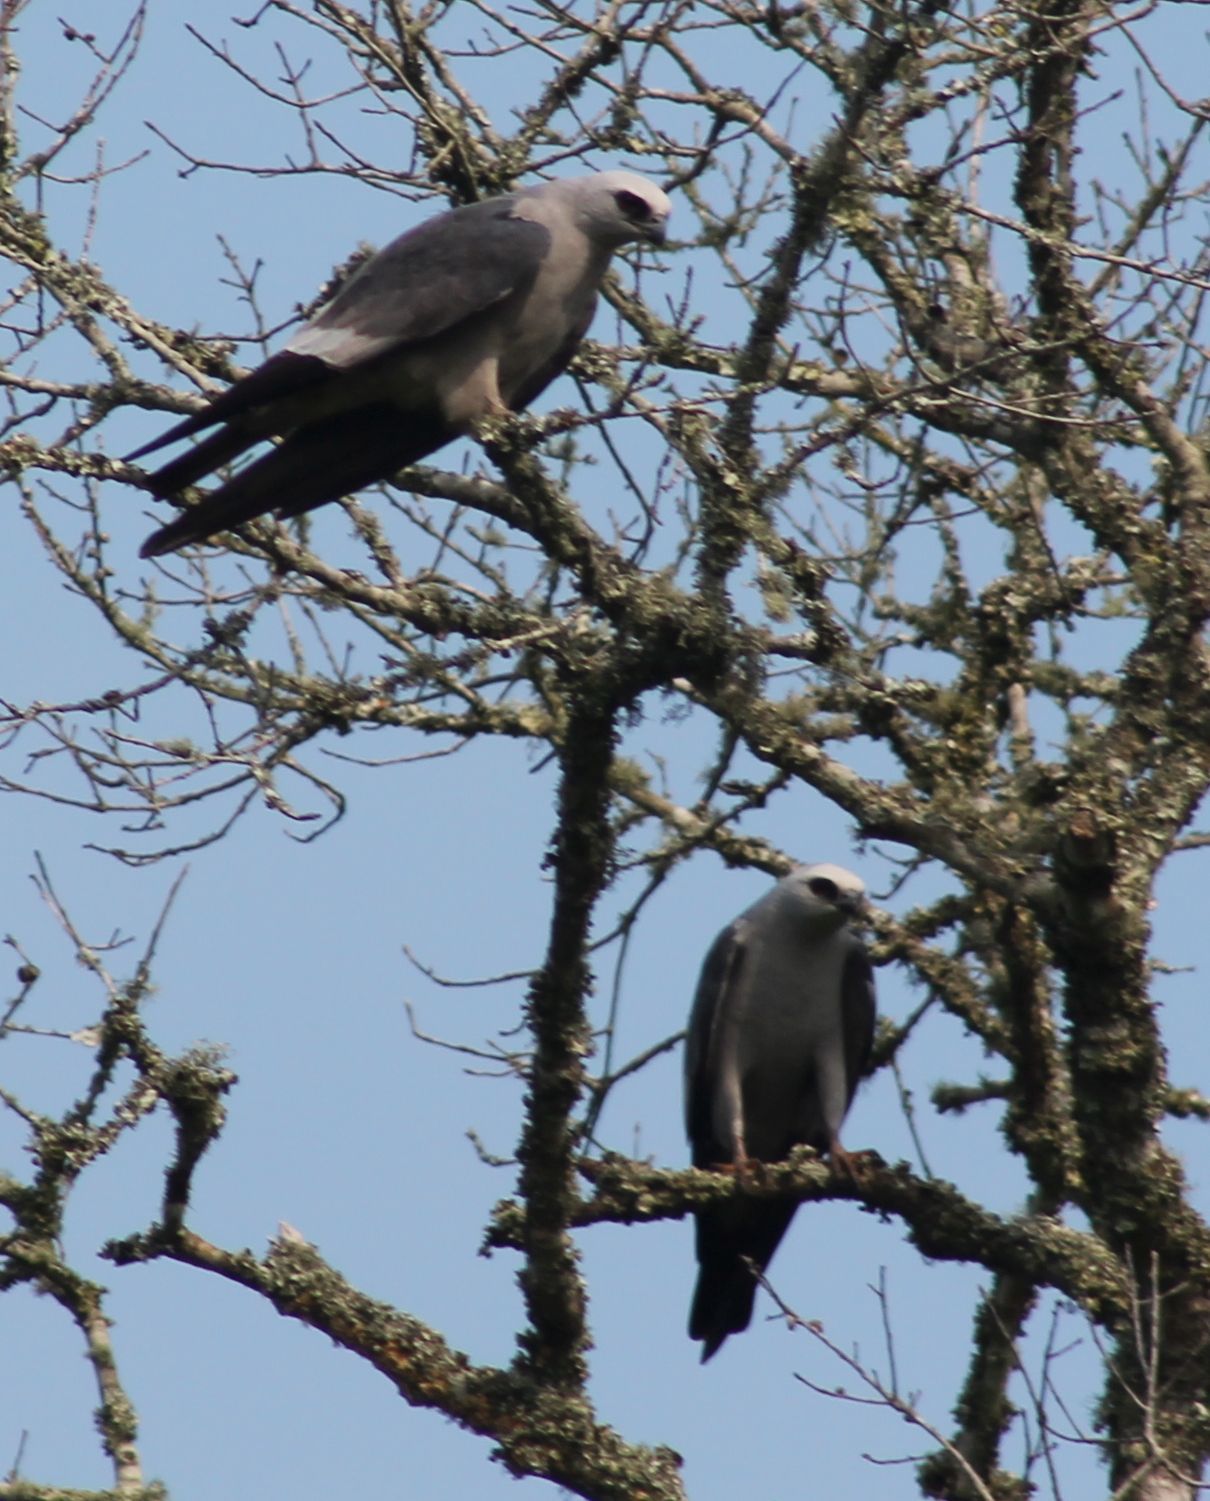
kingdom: Animalia
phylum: Chordata
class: Aves
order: Accipitriformes
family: Accipitridae
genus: Ictinia
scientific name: Ictinia mississippiensis
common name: Mississippi kite
